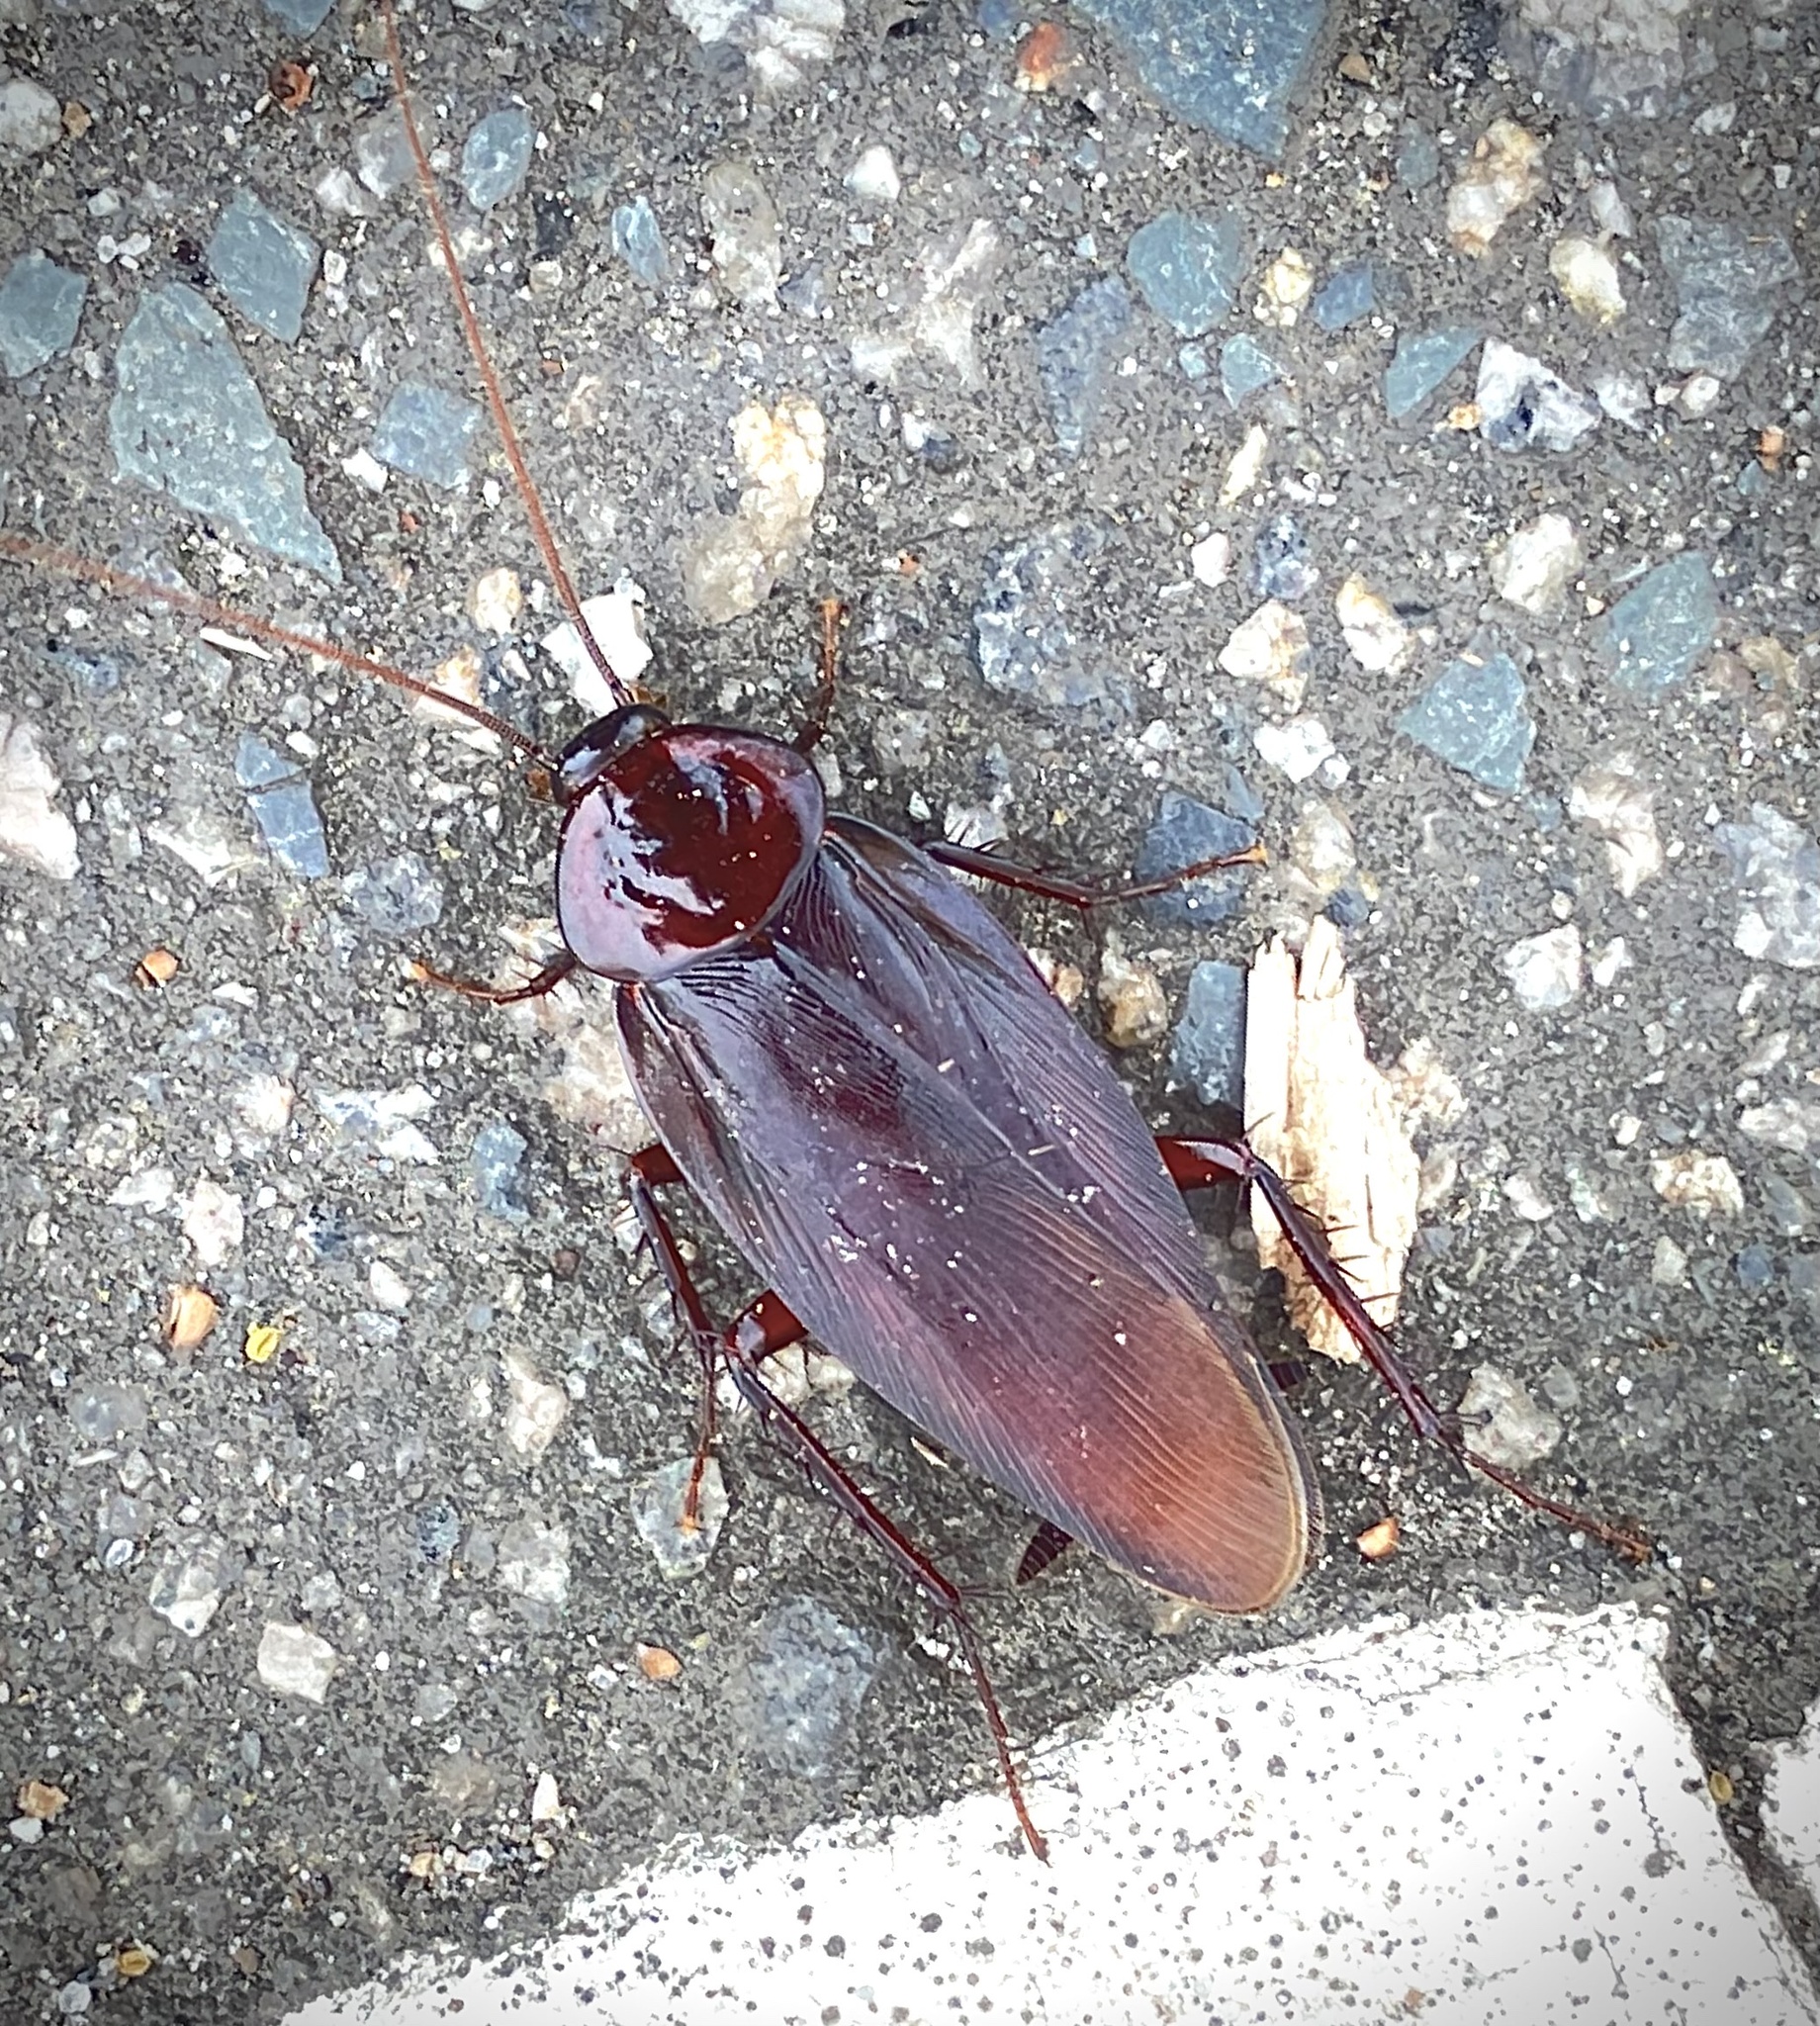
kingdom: Animalia
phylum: Arthropoda
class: Insecta
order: Blattodea
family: Blattidae
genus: Periplaneta
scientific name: Periplaneta fuliginosa
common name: Smokeybrown cockroad
